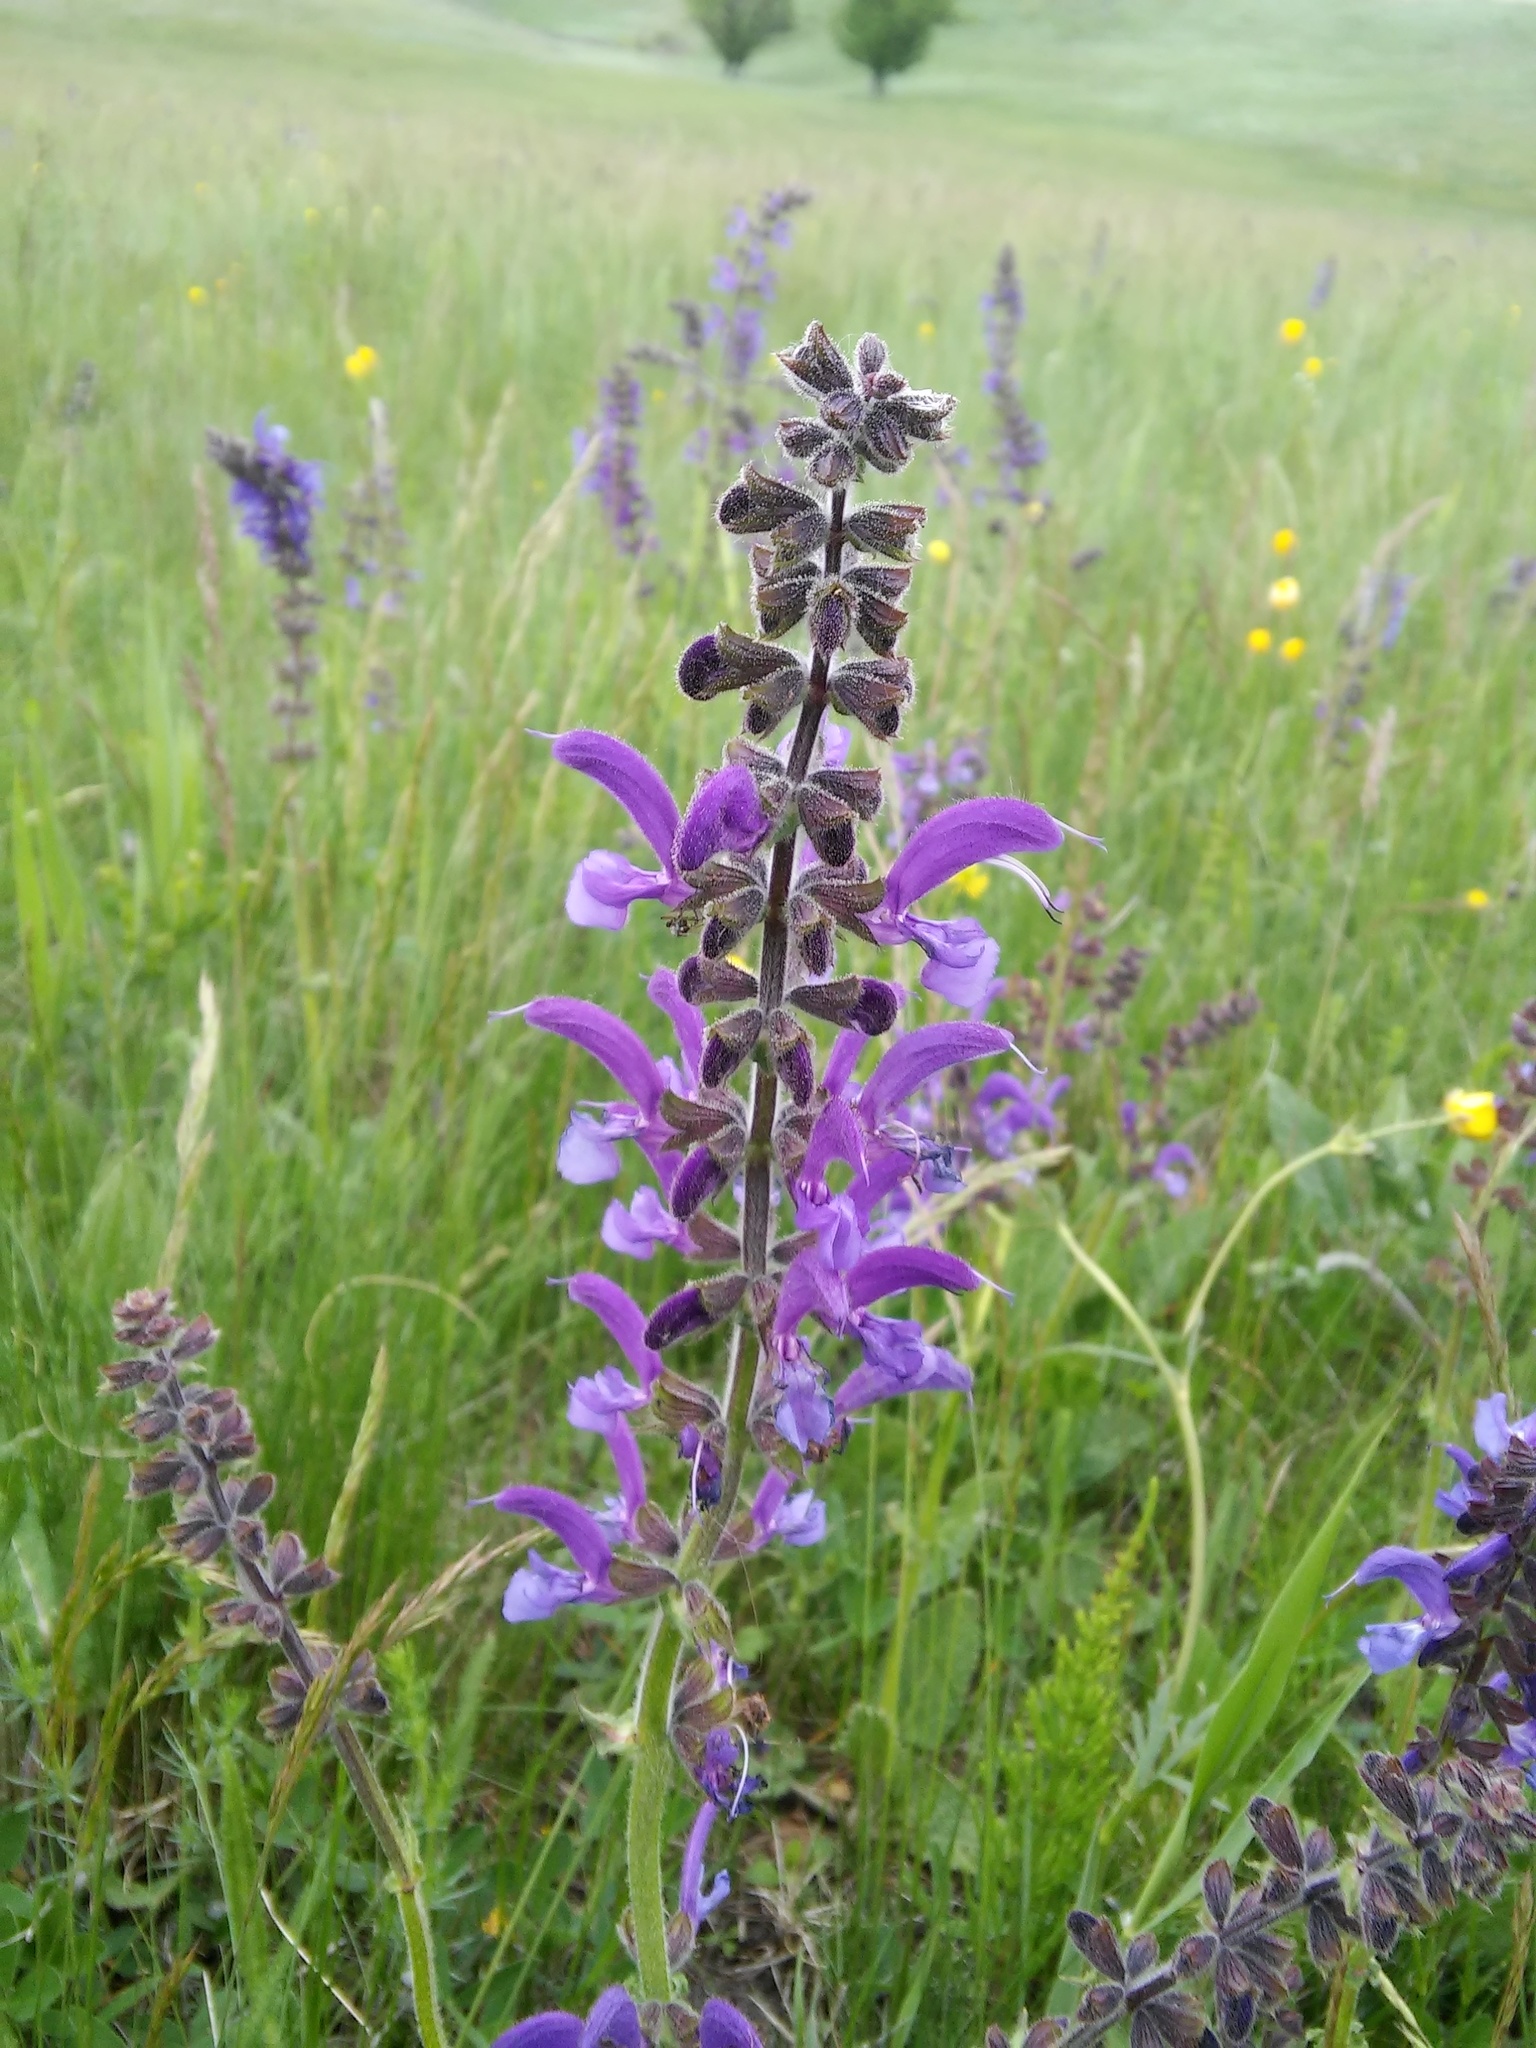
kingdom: Plantae
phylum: Tracheophyta
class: Magnoliopsida
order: Lamiales
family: Lamiaceae
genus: Salvia
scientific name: Salvia pratensis
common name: Meadow sage
